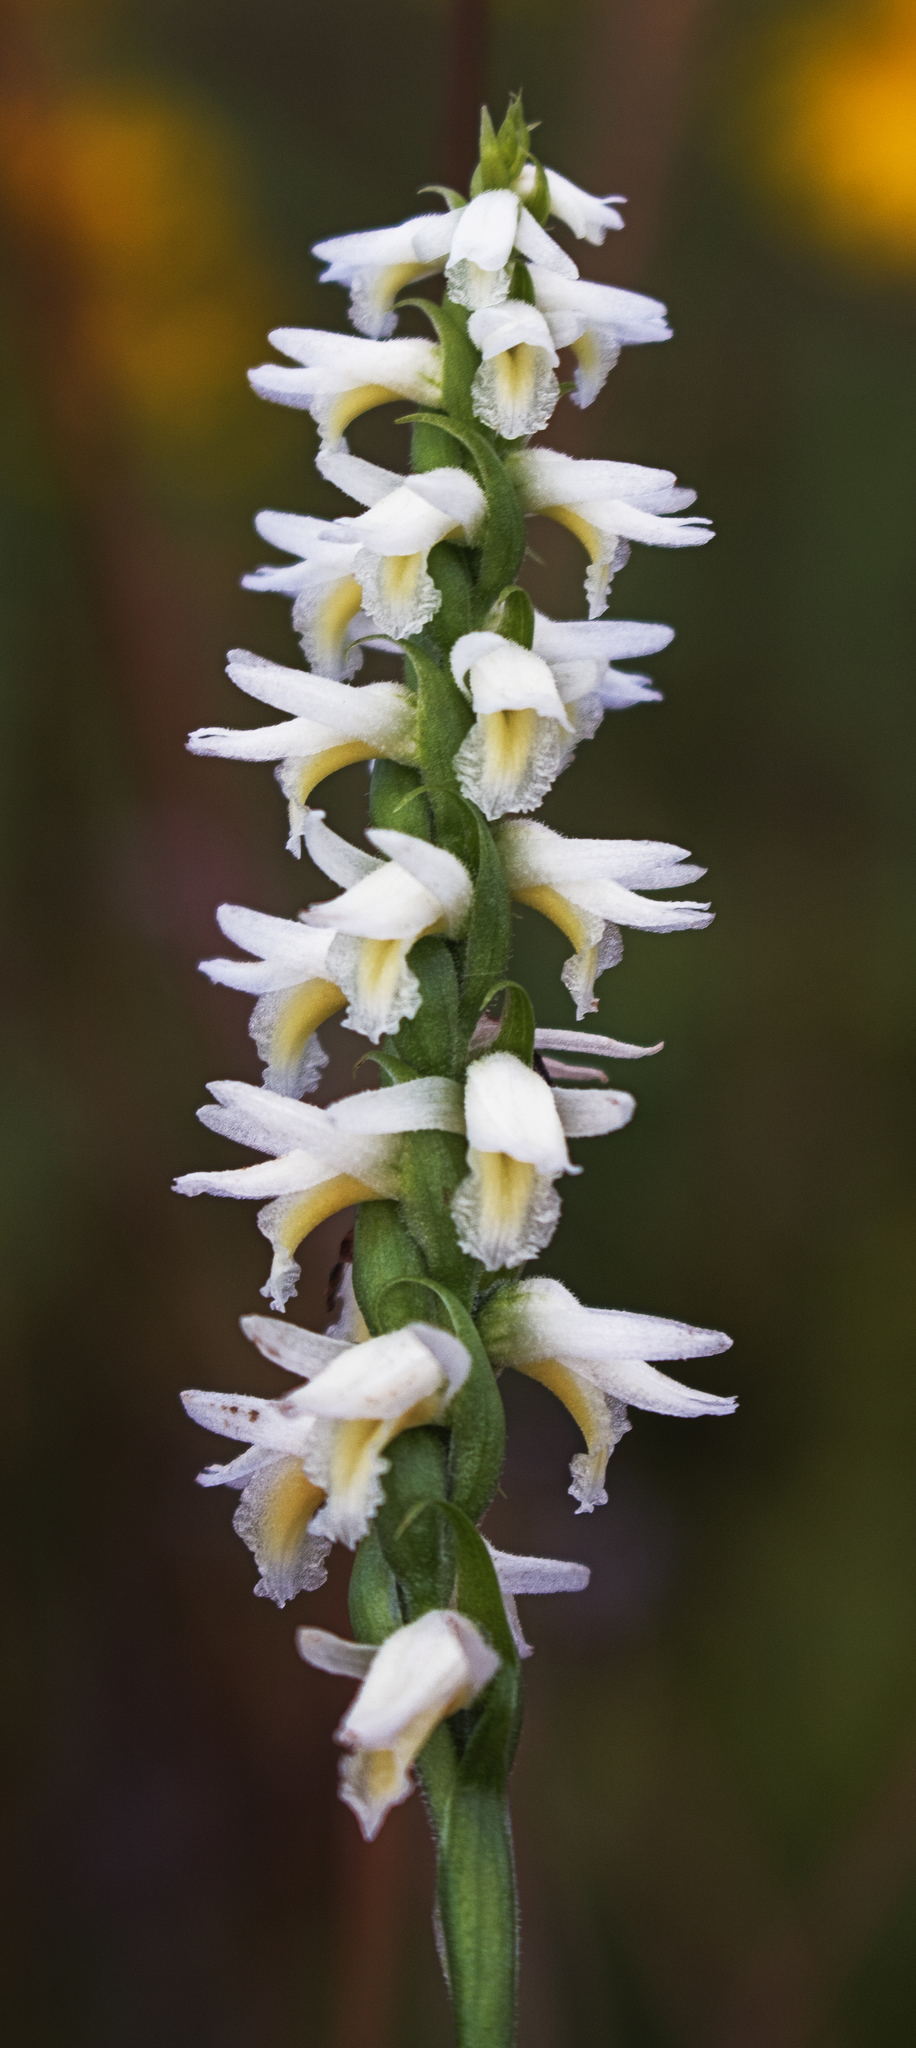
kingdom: Plantae
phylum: Tracheophyta
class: Liliopsida
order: Asparagales
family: Orchidaceae
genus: Spiranthes
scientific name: Spiranthes magnicamporum
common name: Great plains ladies'-tresses
